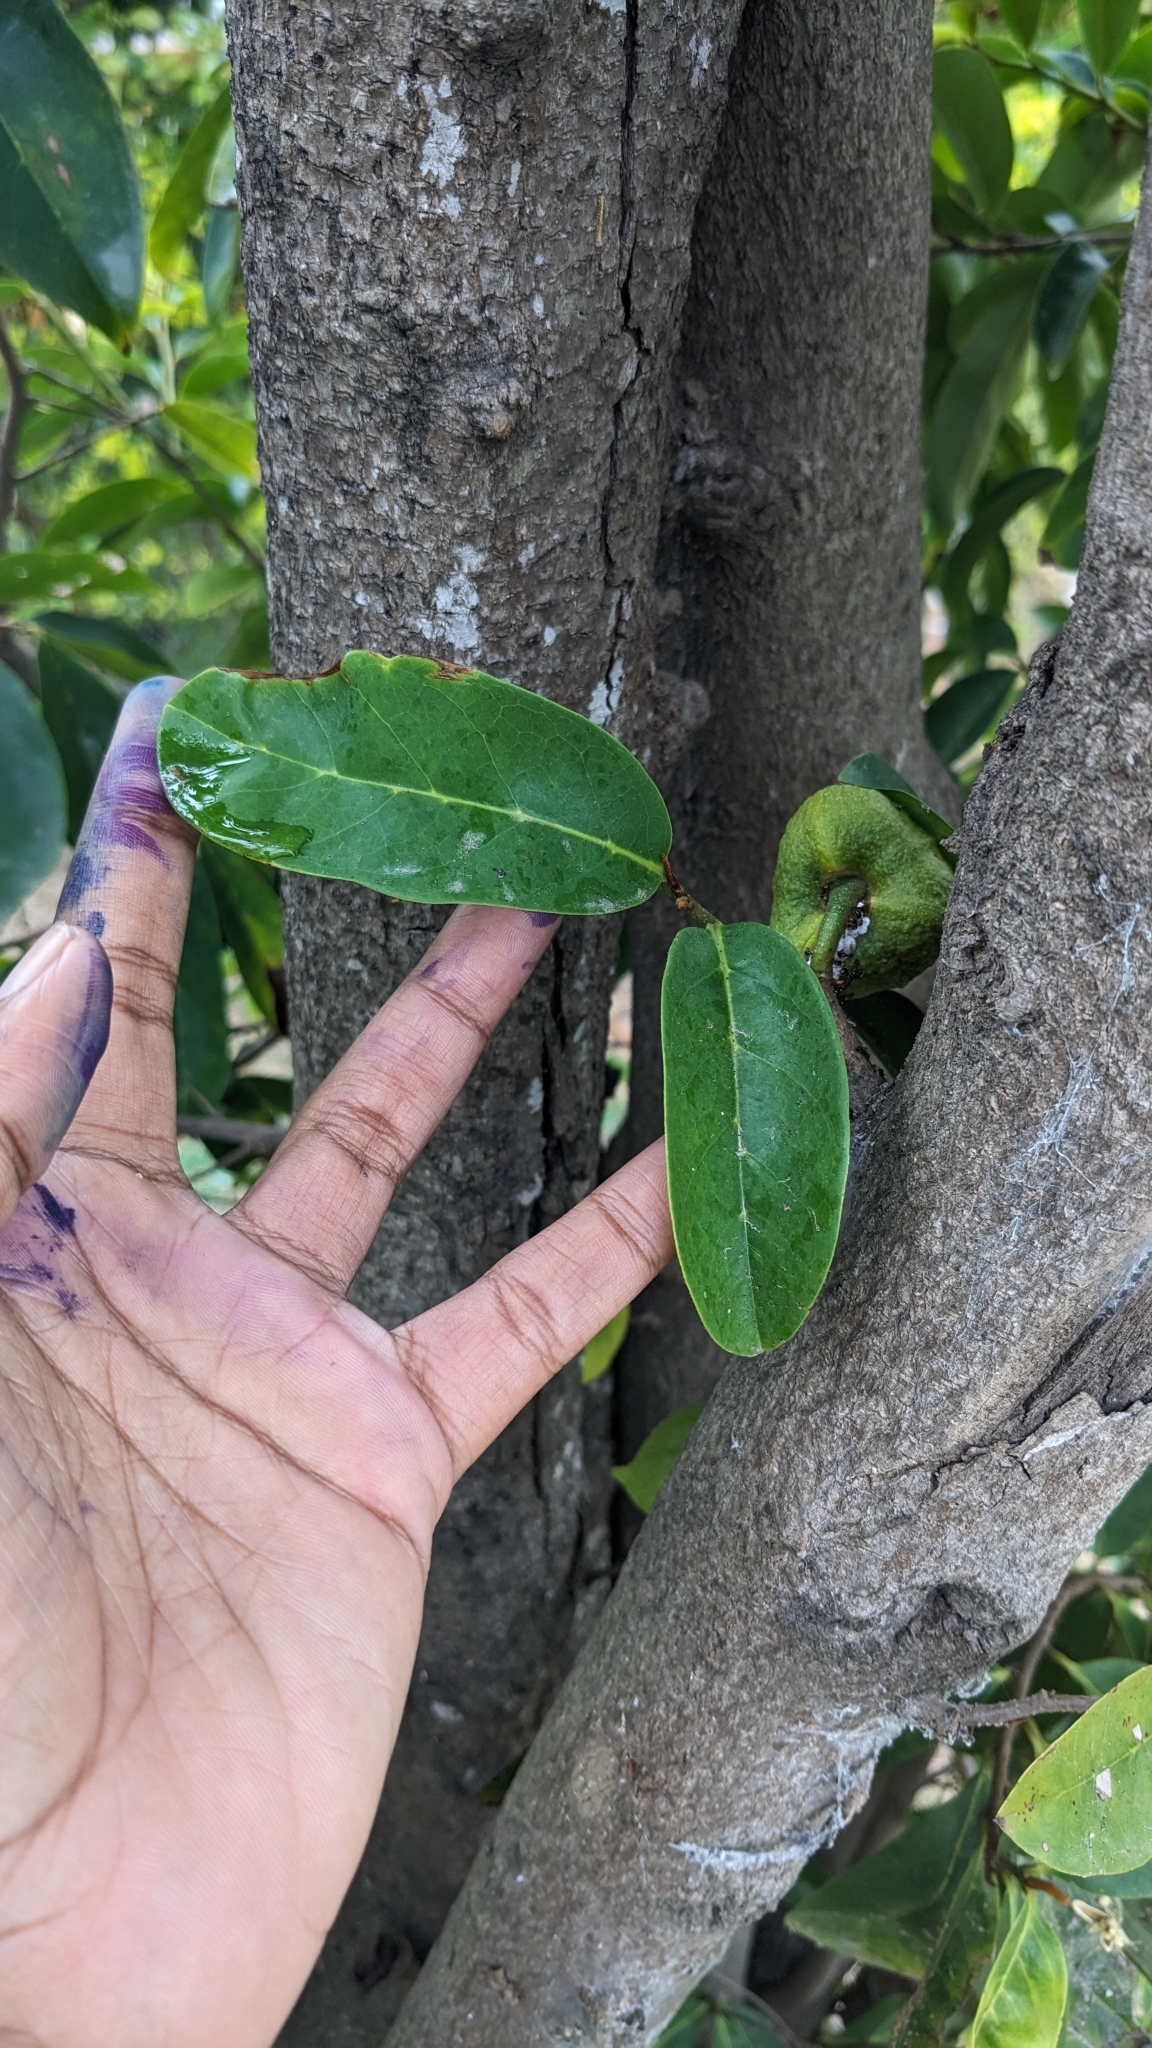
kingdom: Plantae
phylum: Tracheophyta
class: Magnoliopsida
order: Magnoliales
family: Annonaceae
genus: Annona
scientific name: Annona muricata
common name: Soursop
